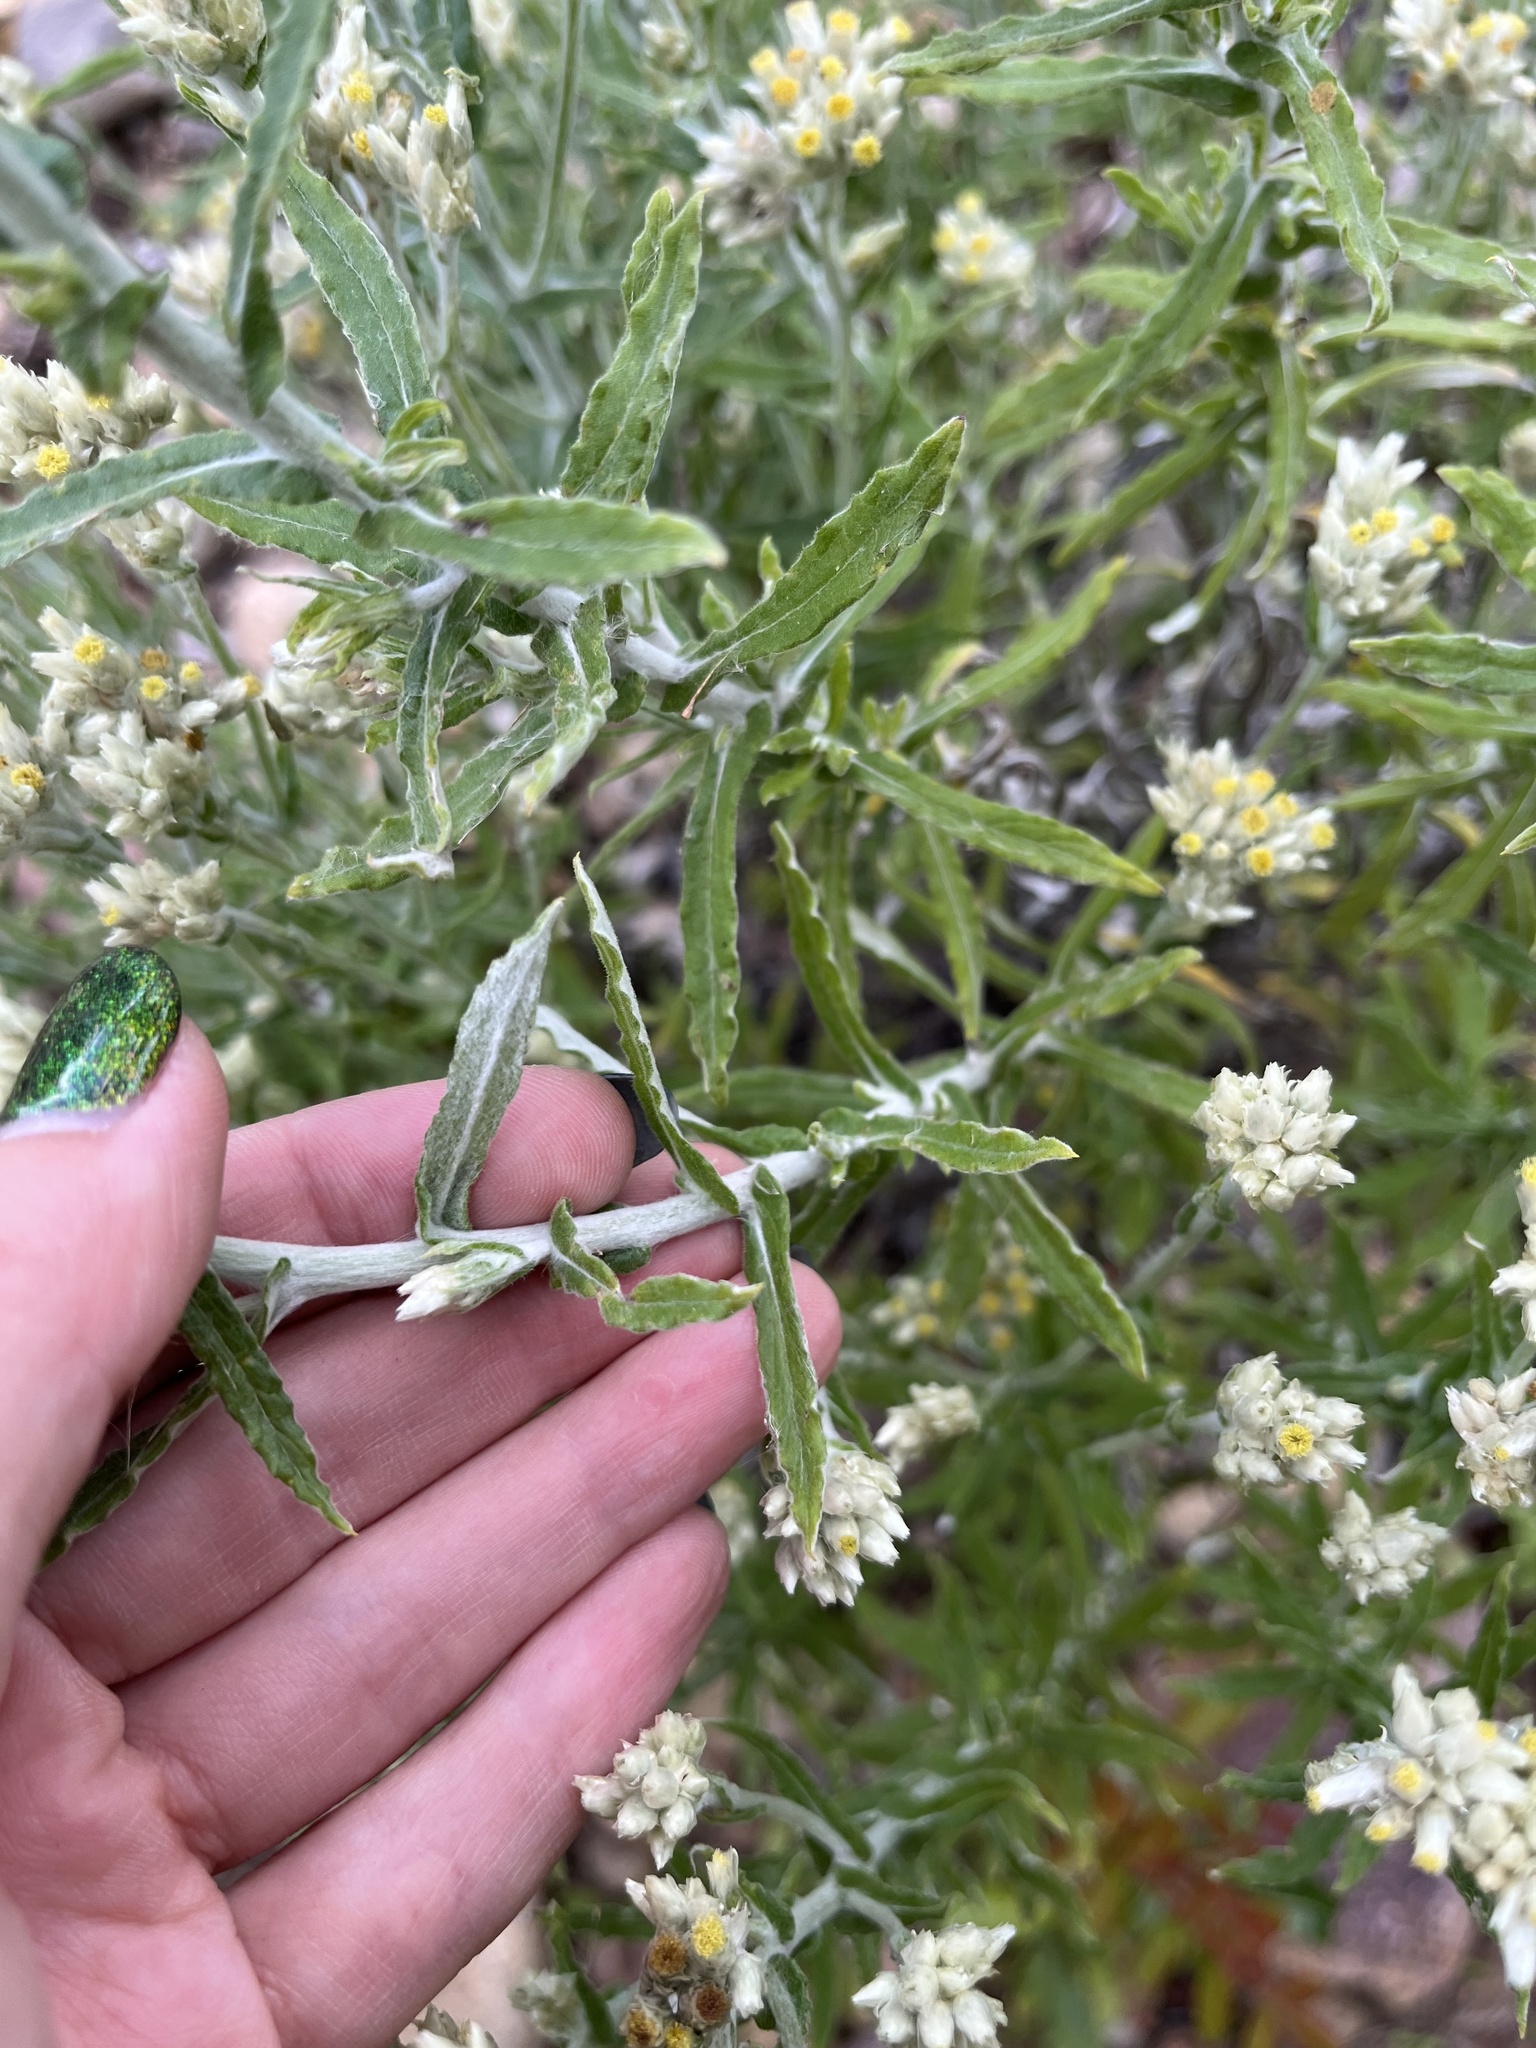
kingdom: Plantae
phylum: Tracheophyta
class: Magnoliopsida
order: Asterales
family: Asteraceae
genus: Pseudognaphalium
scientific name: Pseudognaphalium biolettii
